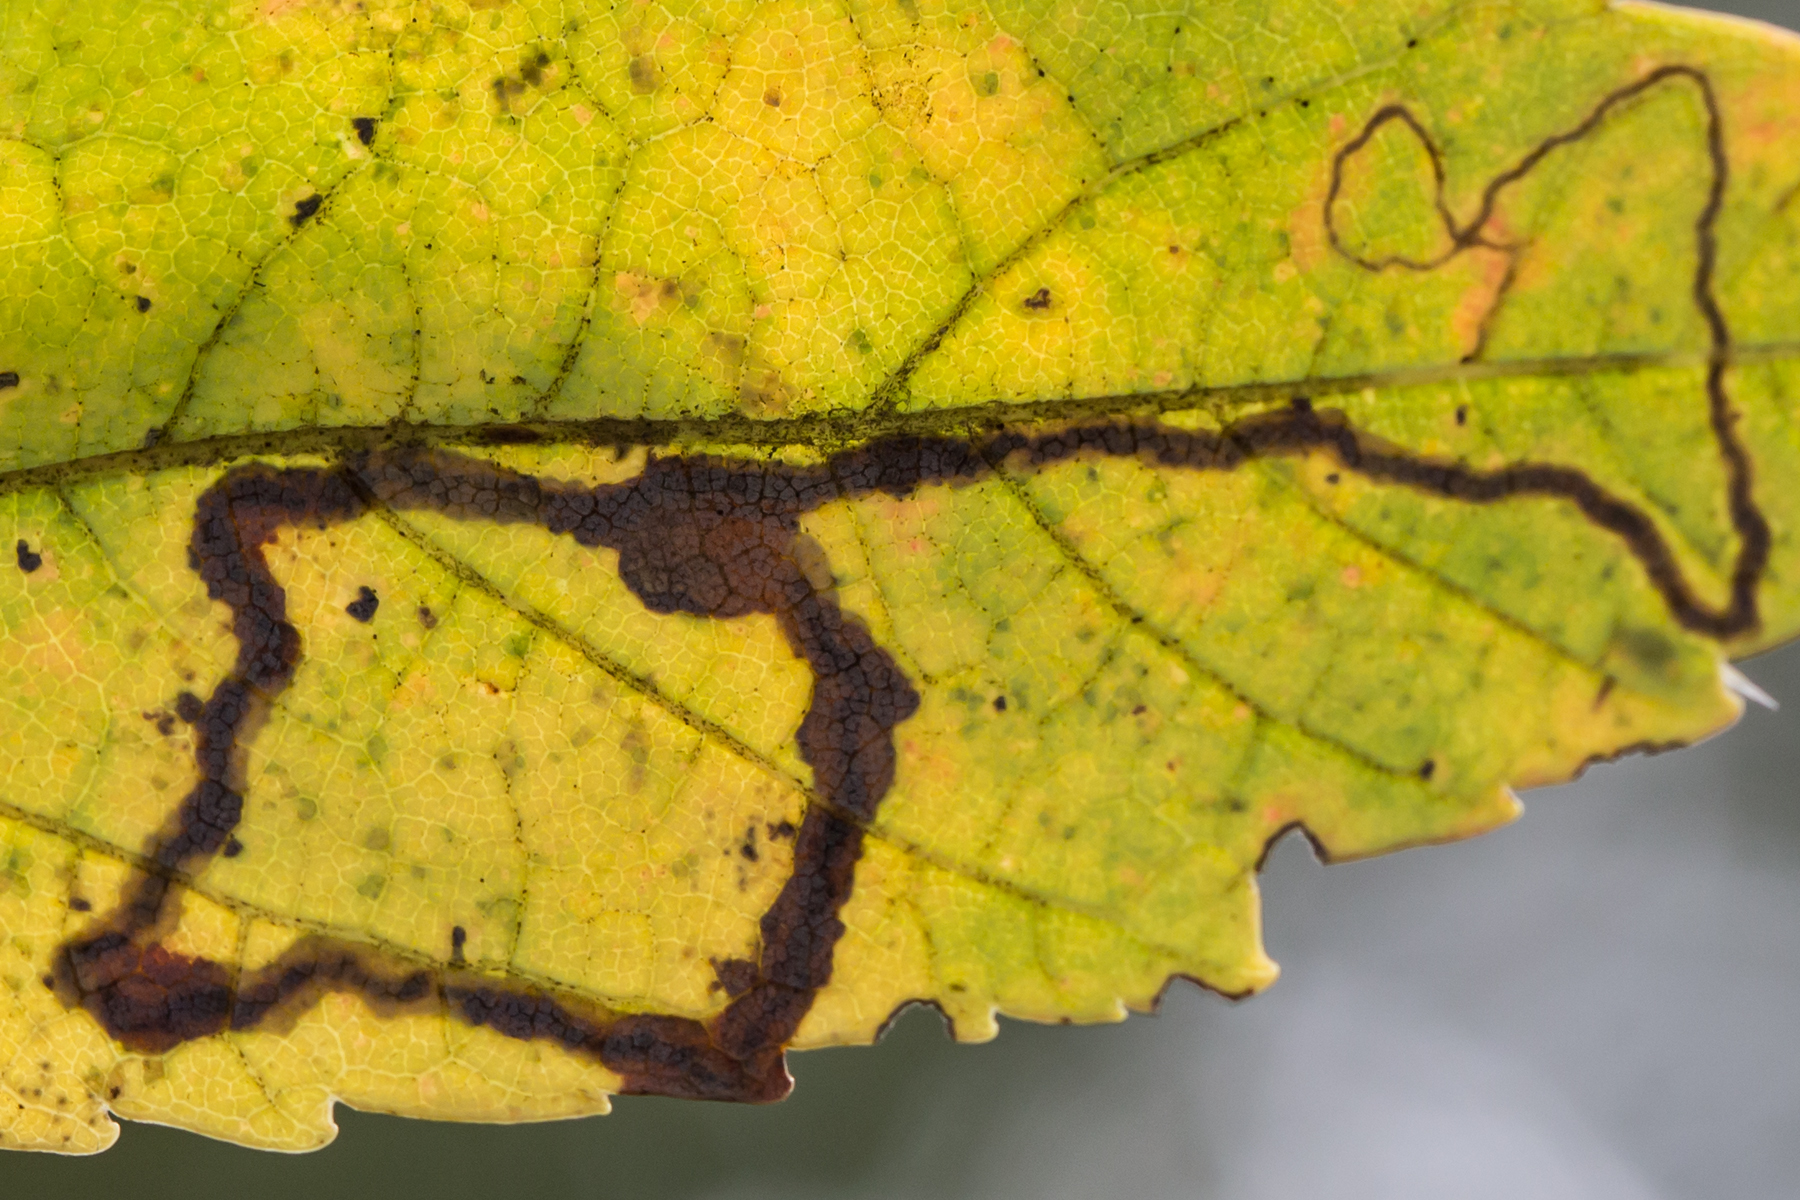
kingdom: Animalia
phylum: Arthropoda
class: Insecta
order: Lepidoptera
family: Nepticulidae
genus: Glaucolepis
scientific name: Glaucolepis saccharella
